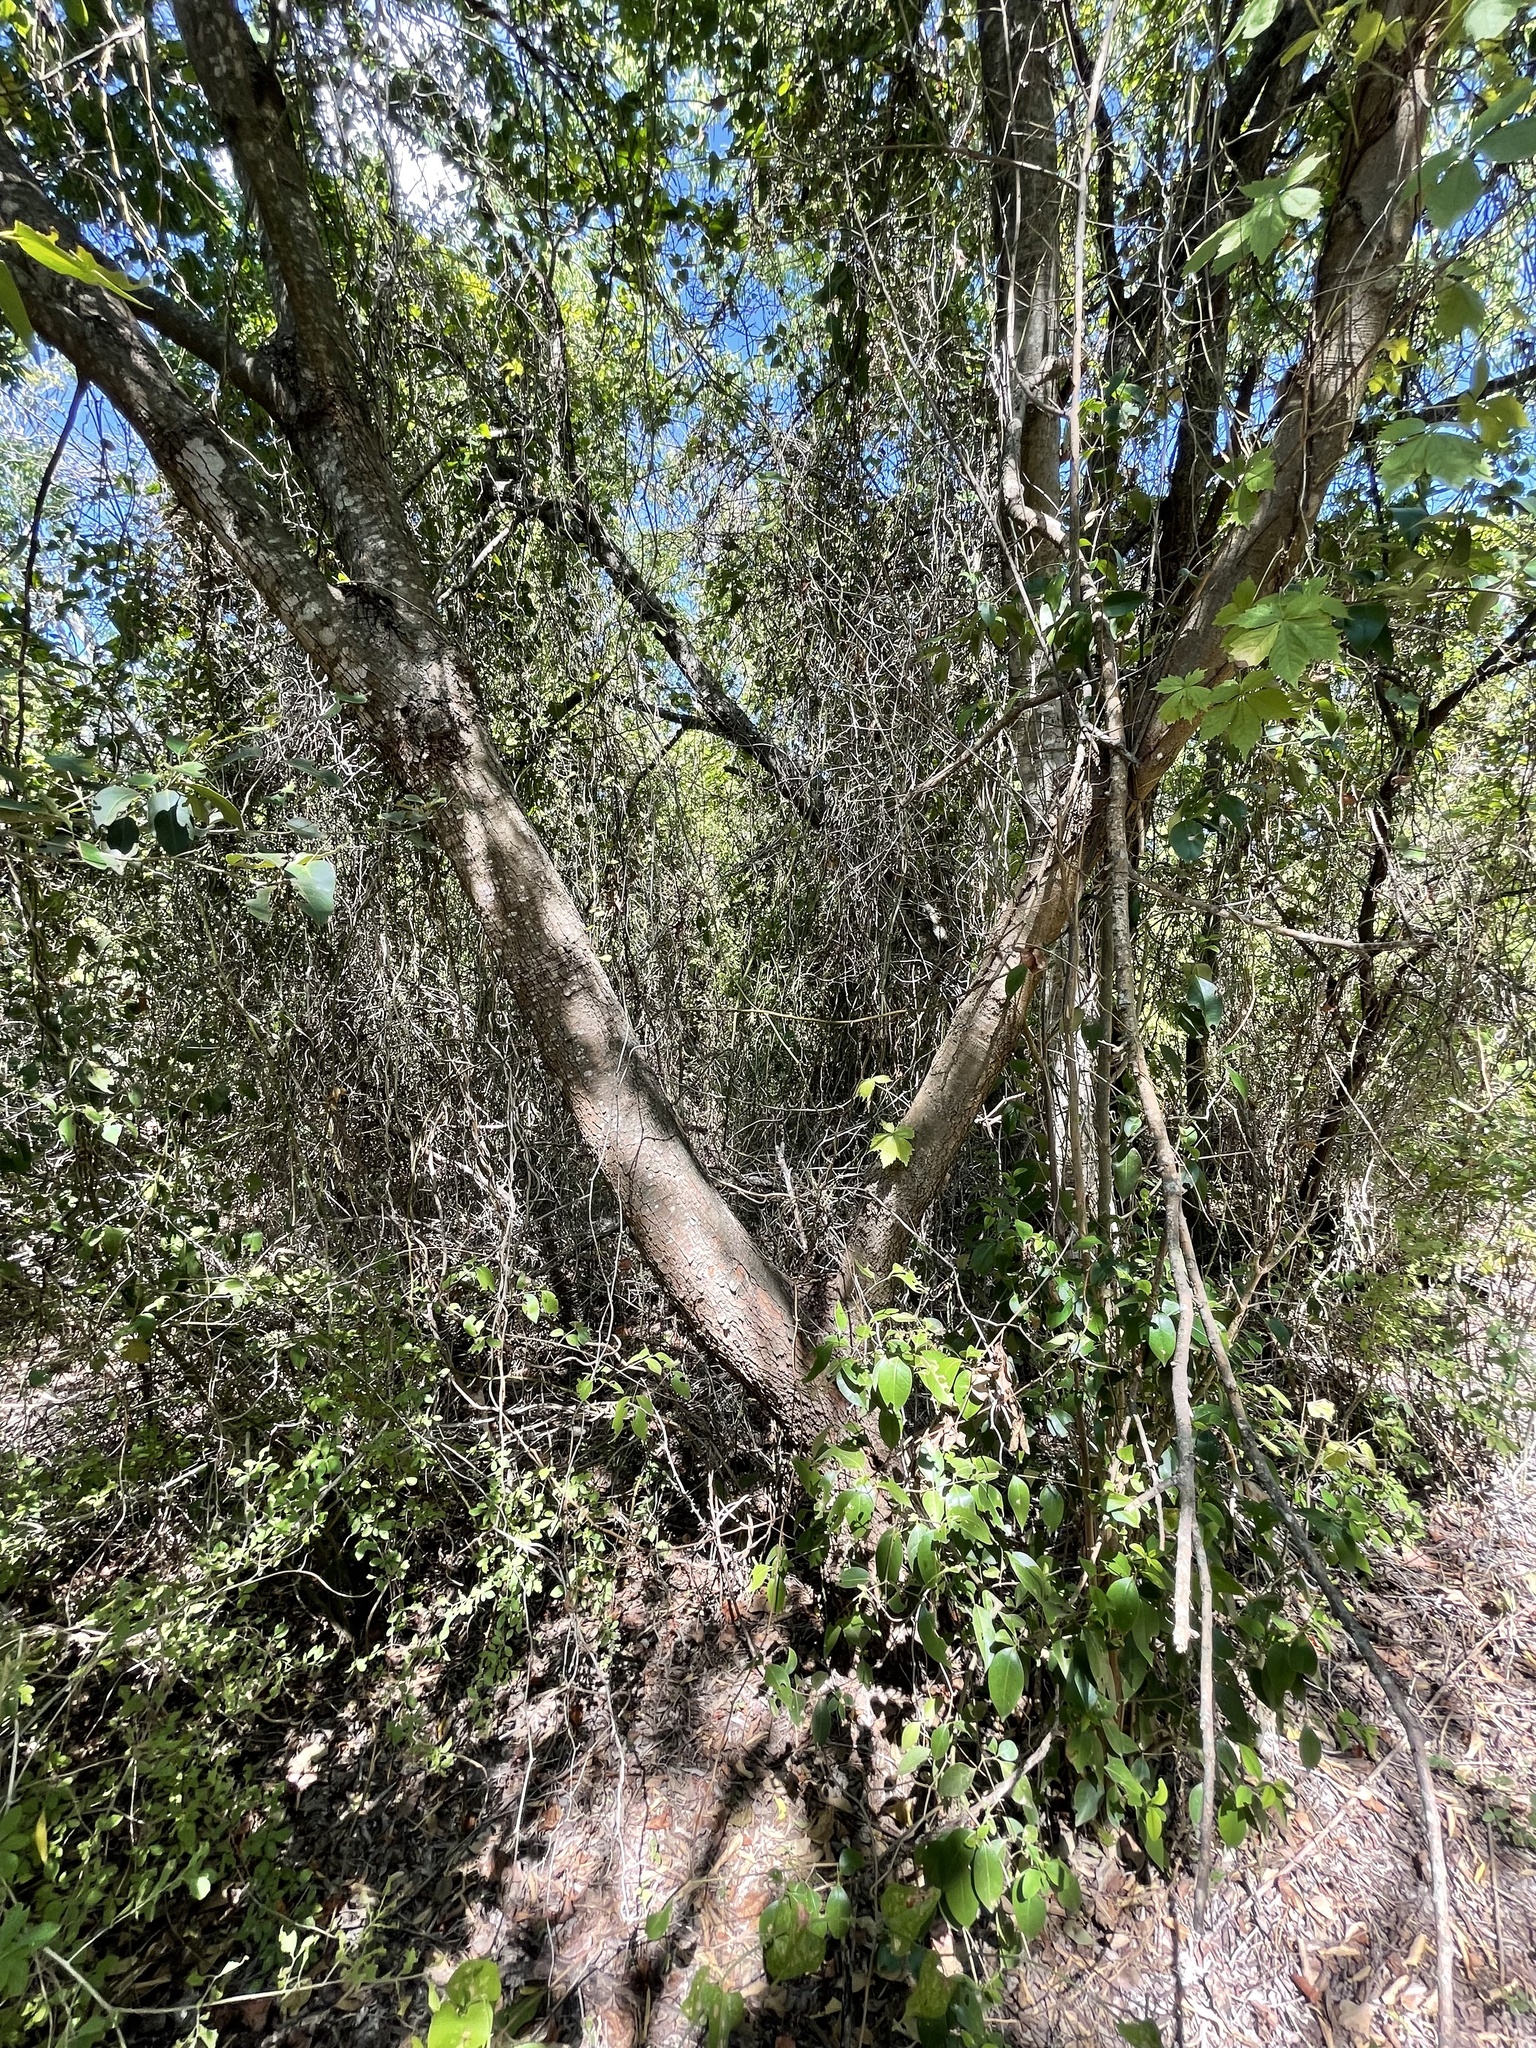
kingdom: Plantae
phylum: Tracheophyta
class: Magnoliopsida
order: Sapindales
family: Anacardiaceae
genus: Pistacia
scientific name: Pistacia chinensis
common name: Chinese pistache
